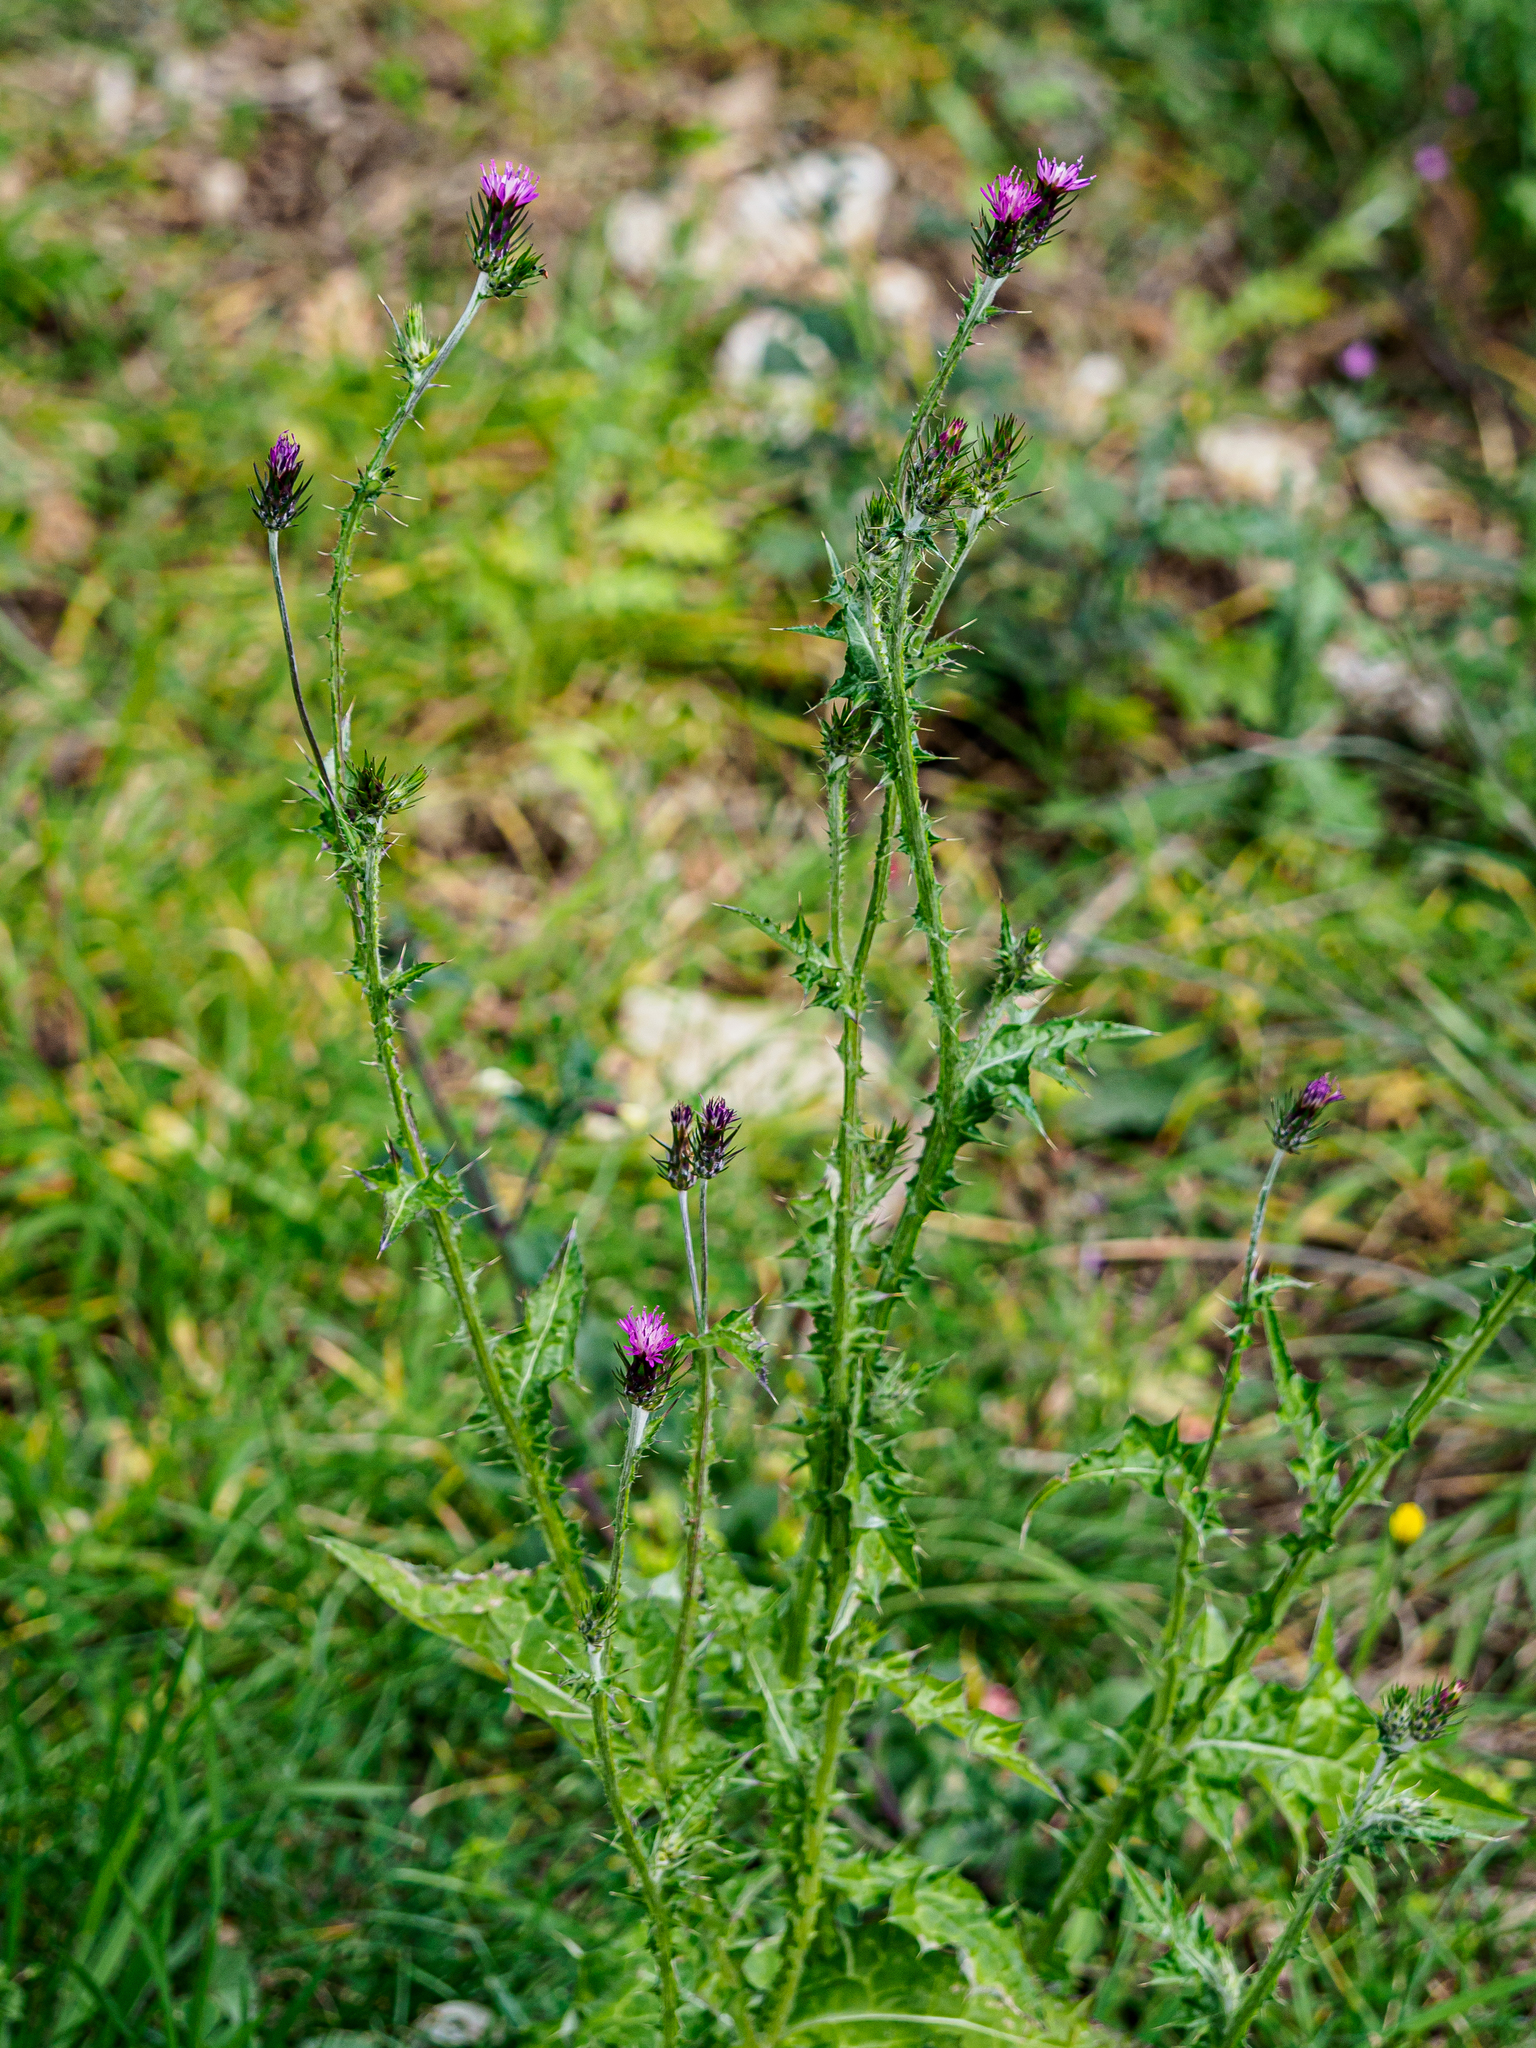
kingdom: Plantae
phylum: Tracheophyta
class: Magnoliopsida
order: Asterales
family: Asteraceae
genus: Carduus
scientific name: Carduus pycnocephalus
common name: Plymouth thistle
